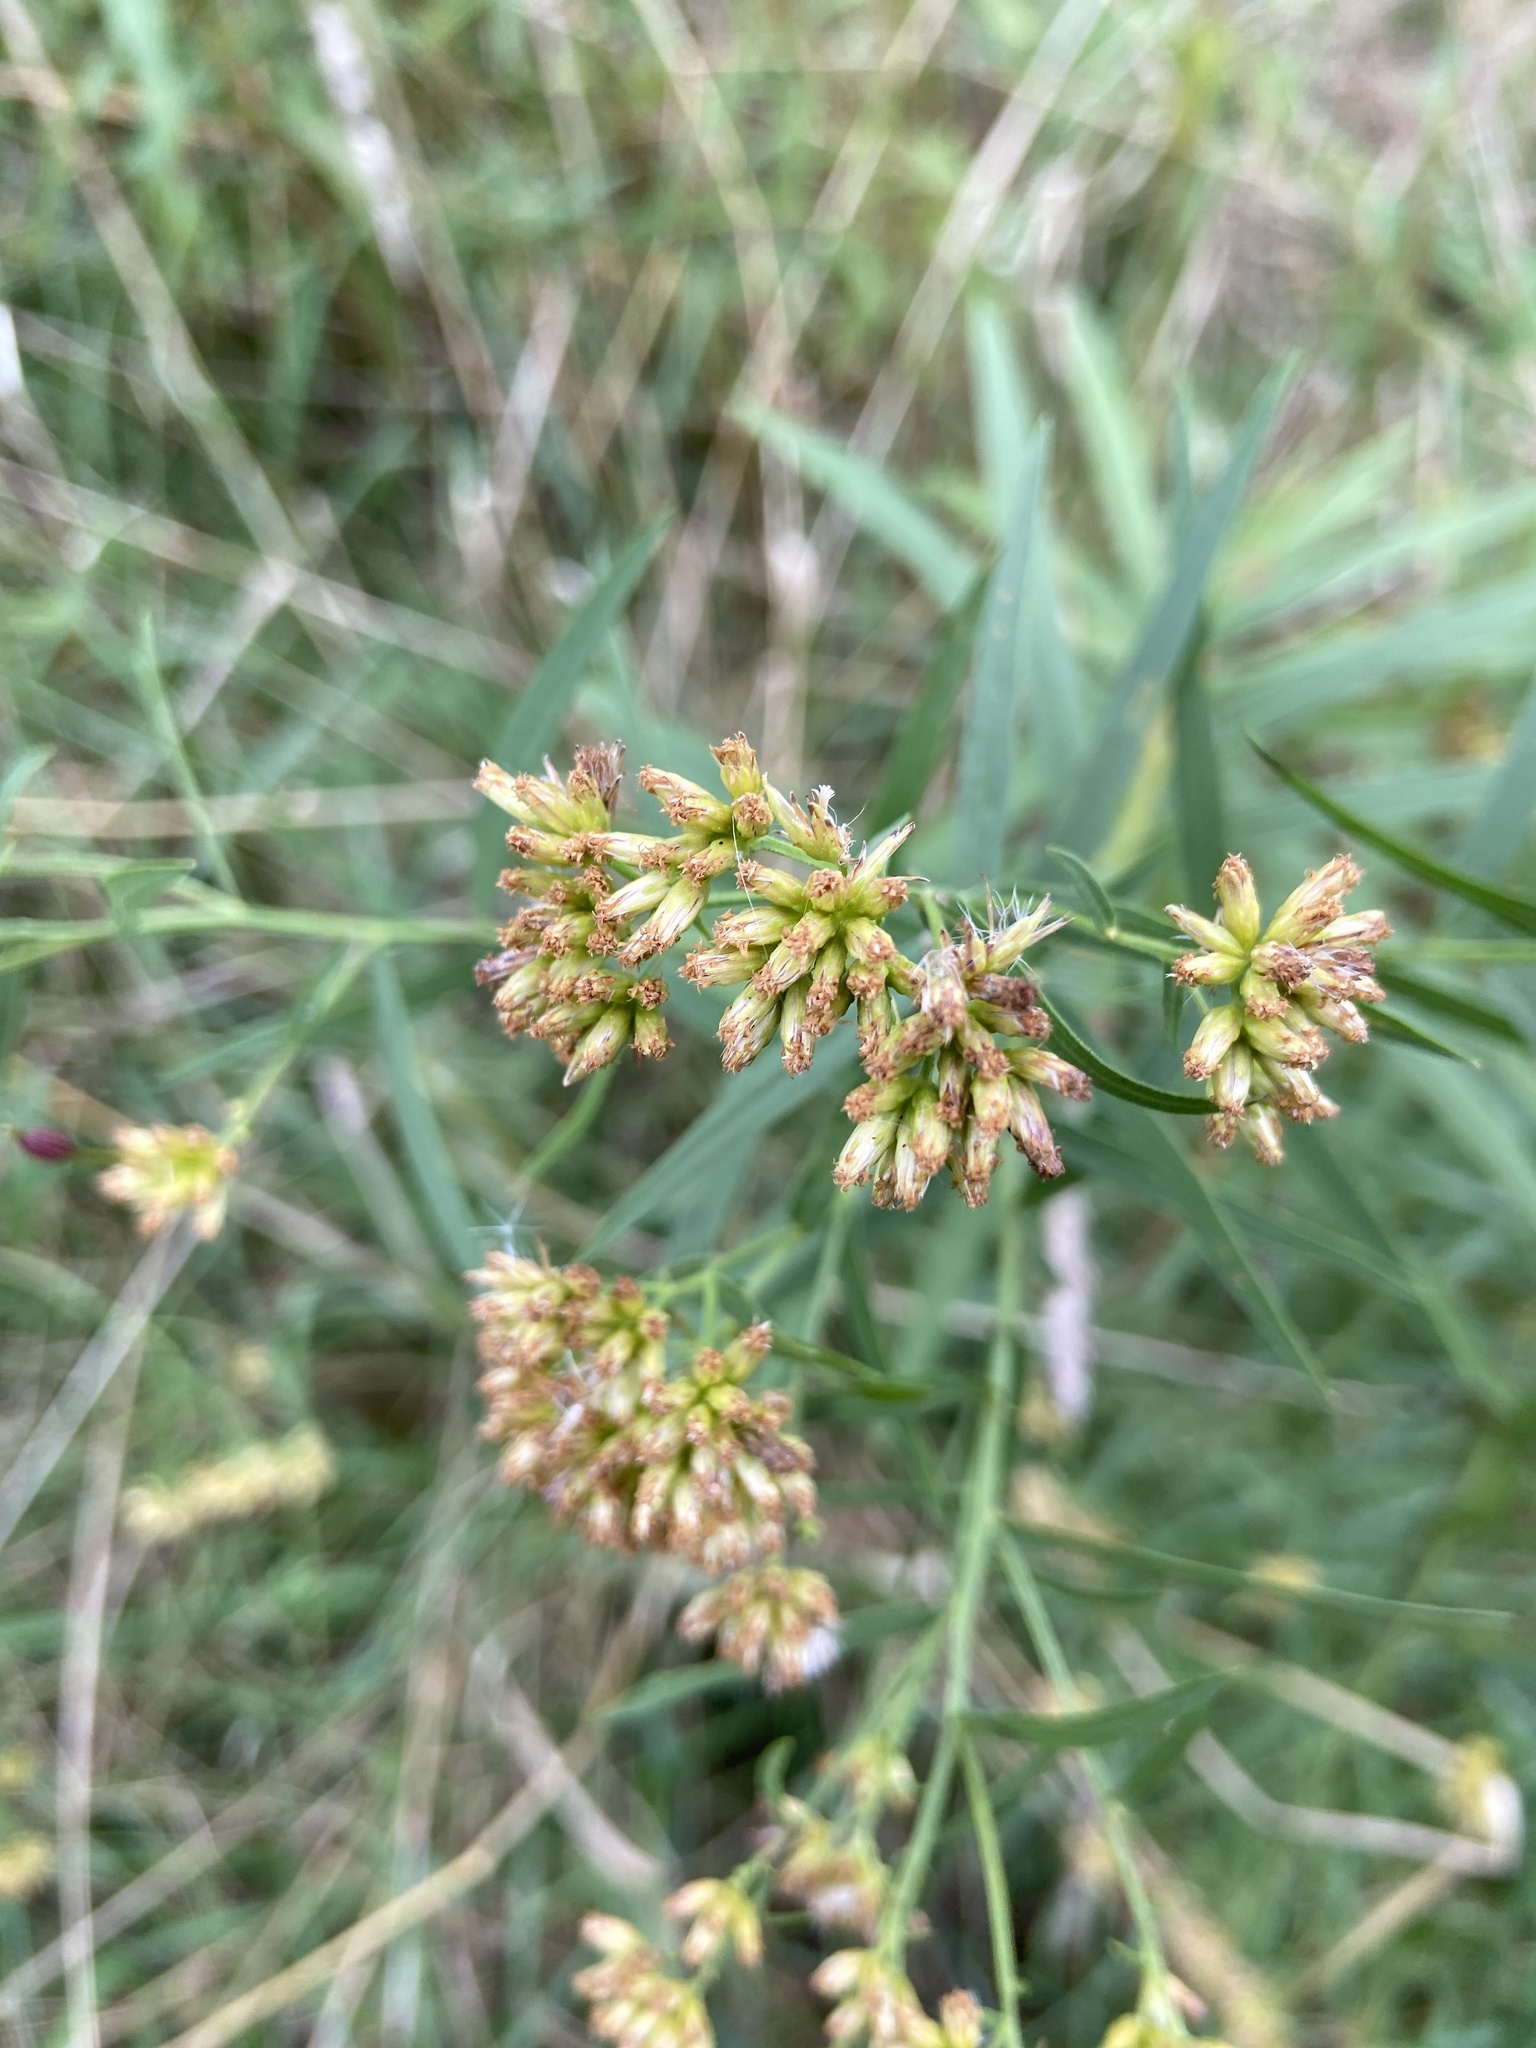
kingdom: Plantae
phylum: Tracheophyta
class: Magnoliopsida
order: Asterales
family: Asteraceae
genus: Euthamia
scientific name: Euthamia graminifolia
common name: Common goldentop
